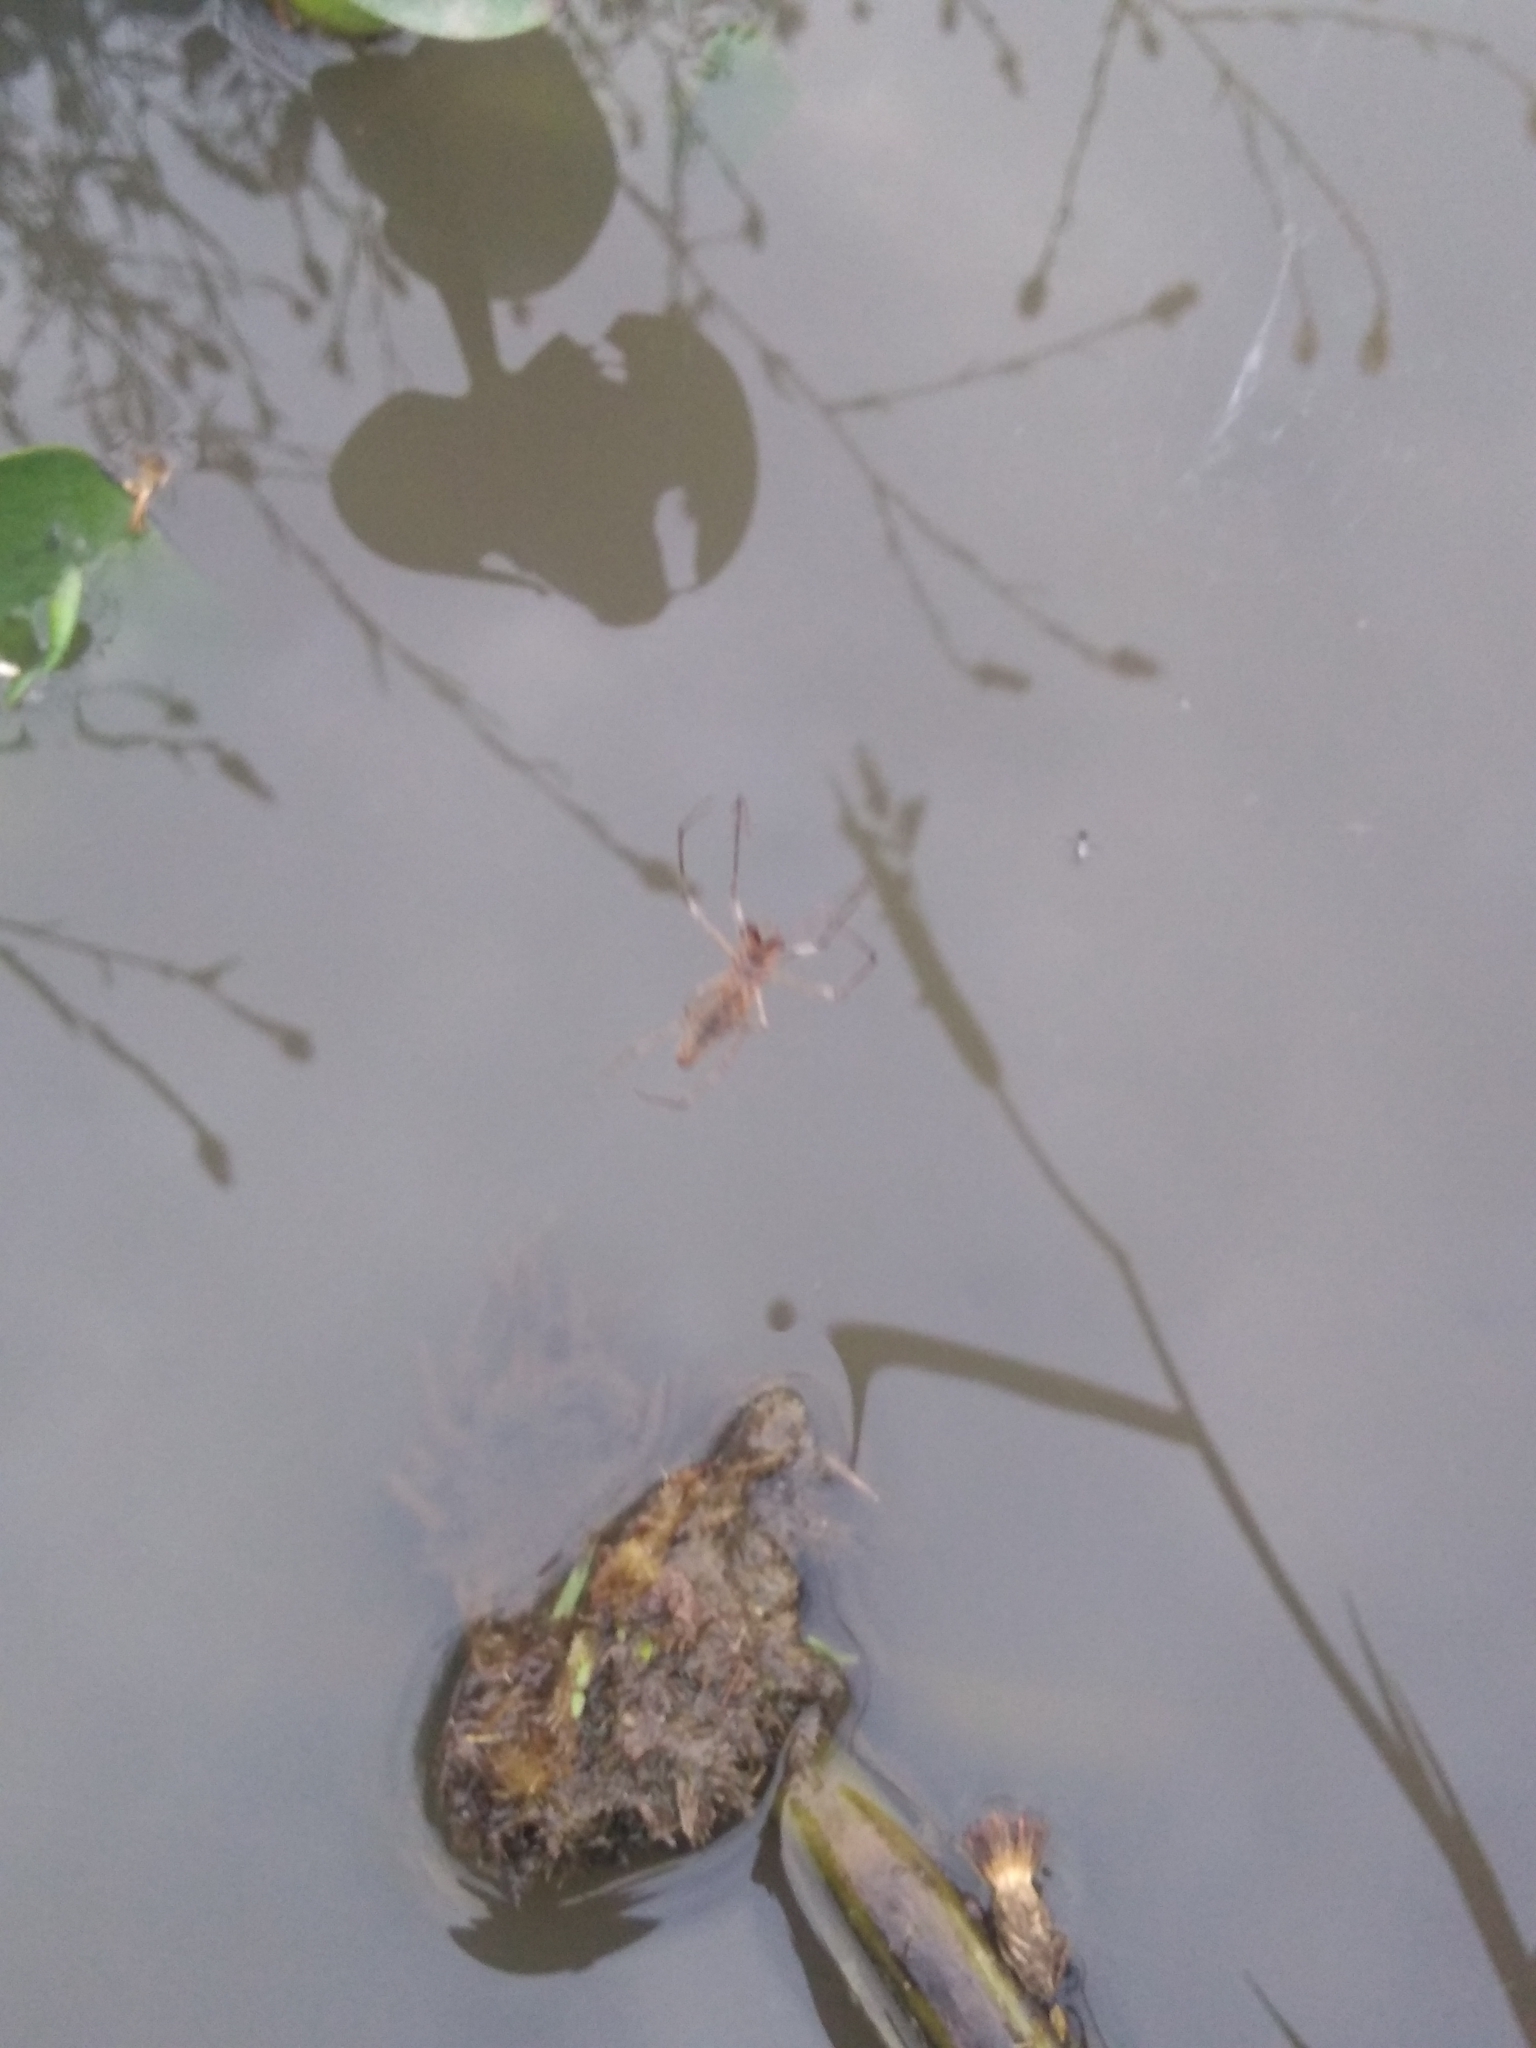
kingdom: Animalia
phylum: Arthropoda
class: Arachnida
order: Araneae
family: Tetragnathidae
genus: Tetragnatha
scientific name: Tetragnatha
